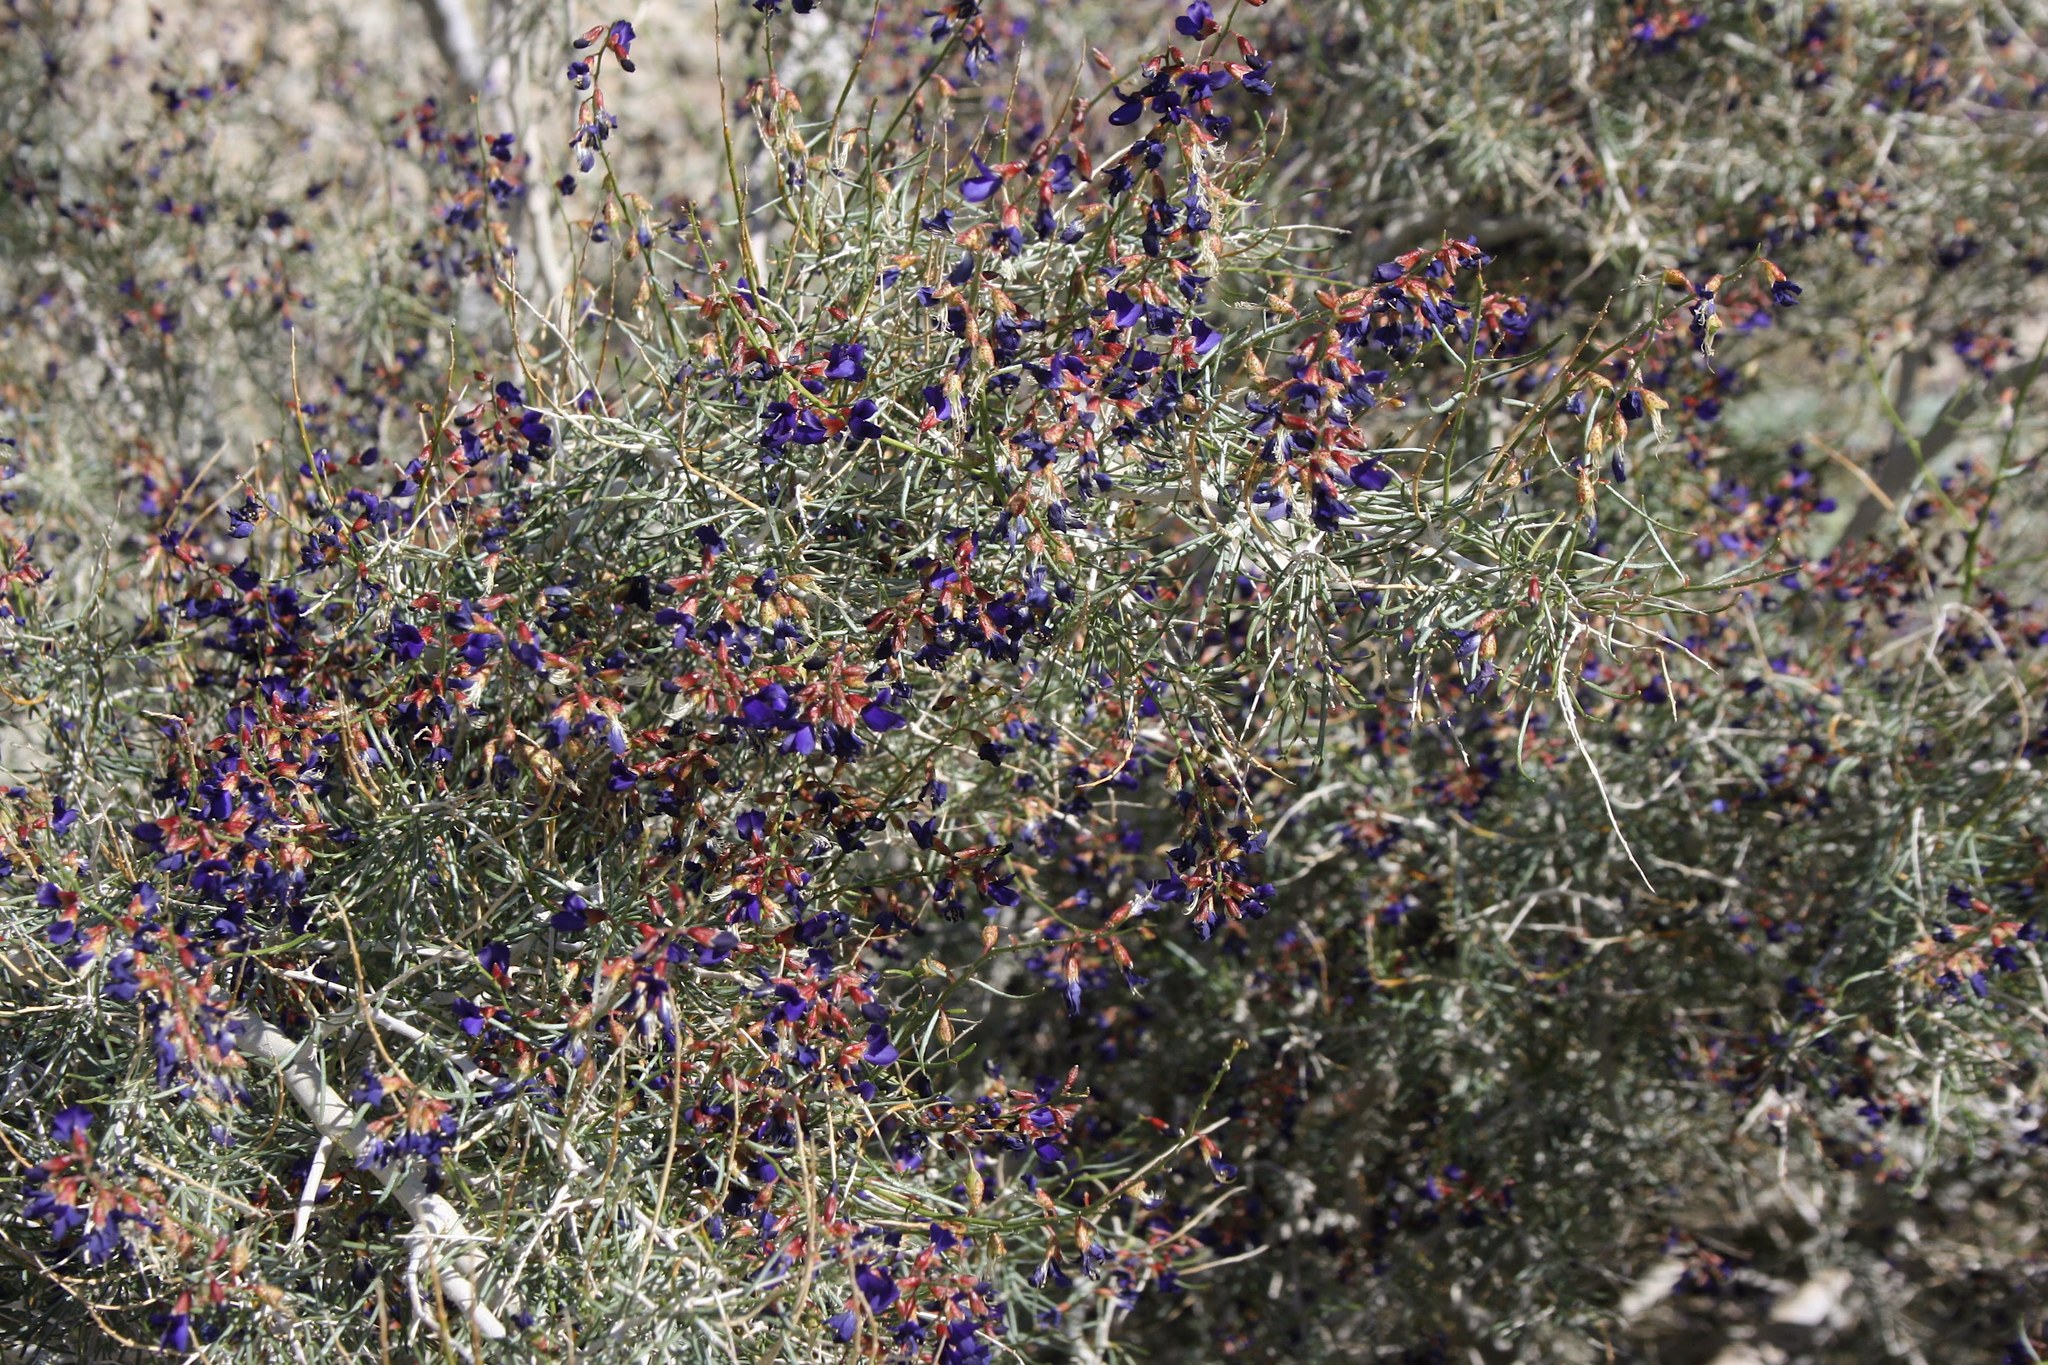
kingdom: Plantae
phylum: Tracheophyta
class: Magnoliopsida
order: Fabales
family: Fabaceae
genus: Psorothamnus
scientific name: Psorothamnus schottii
